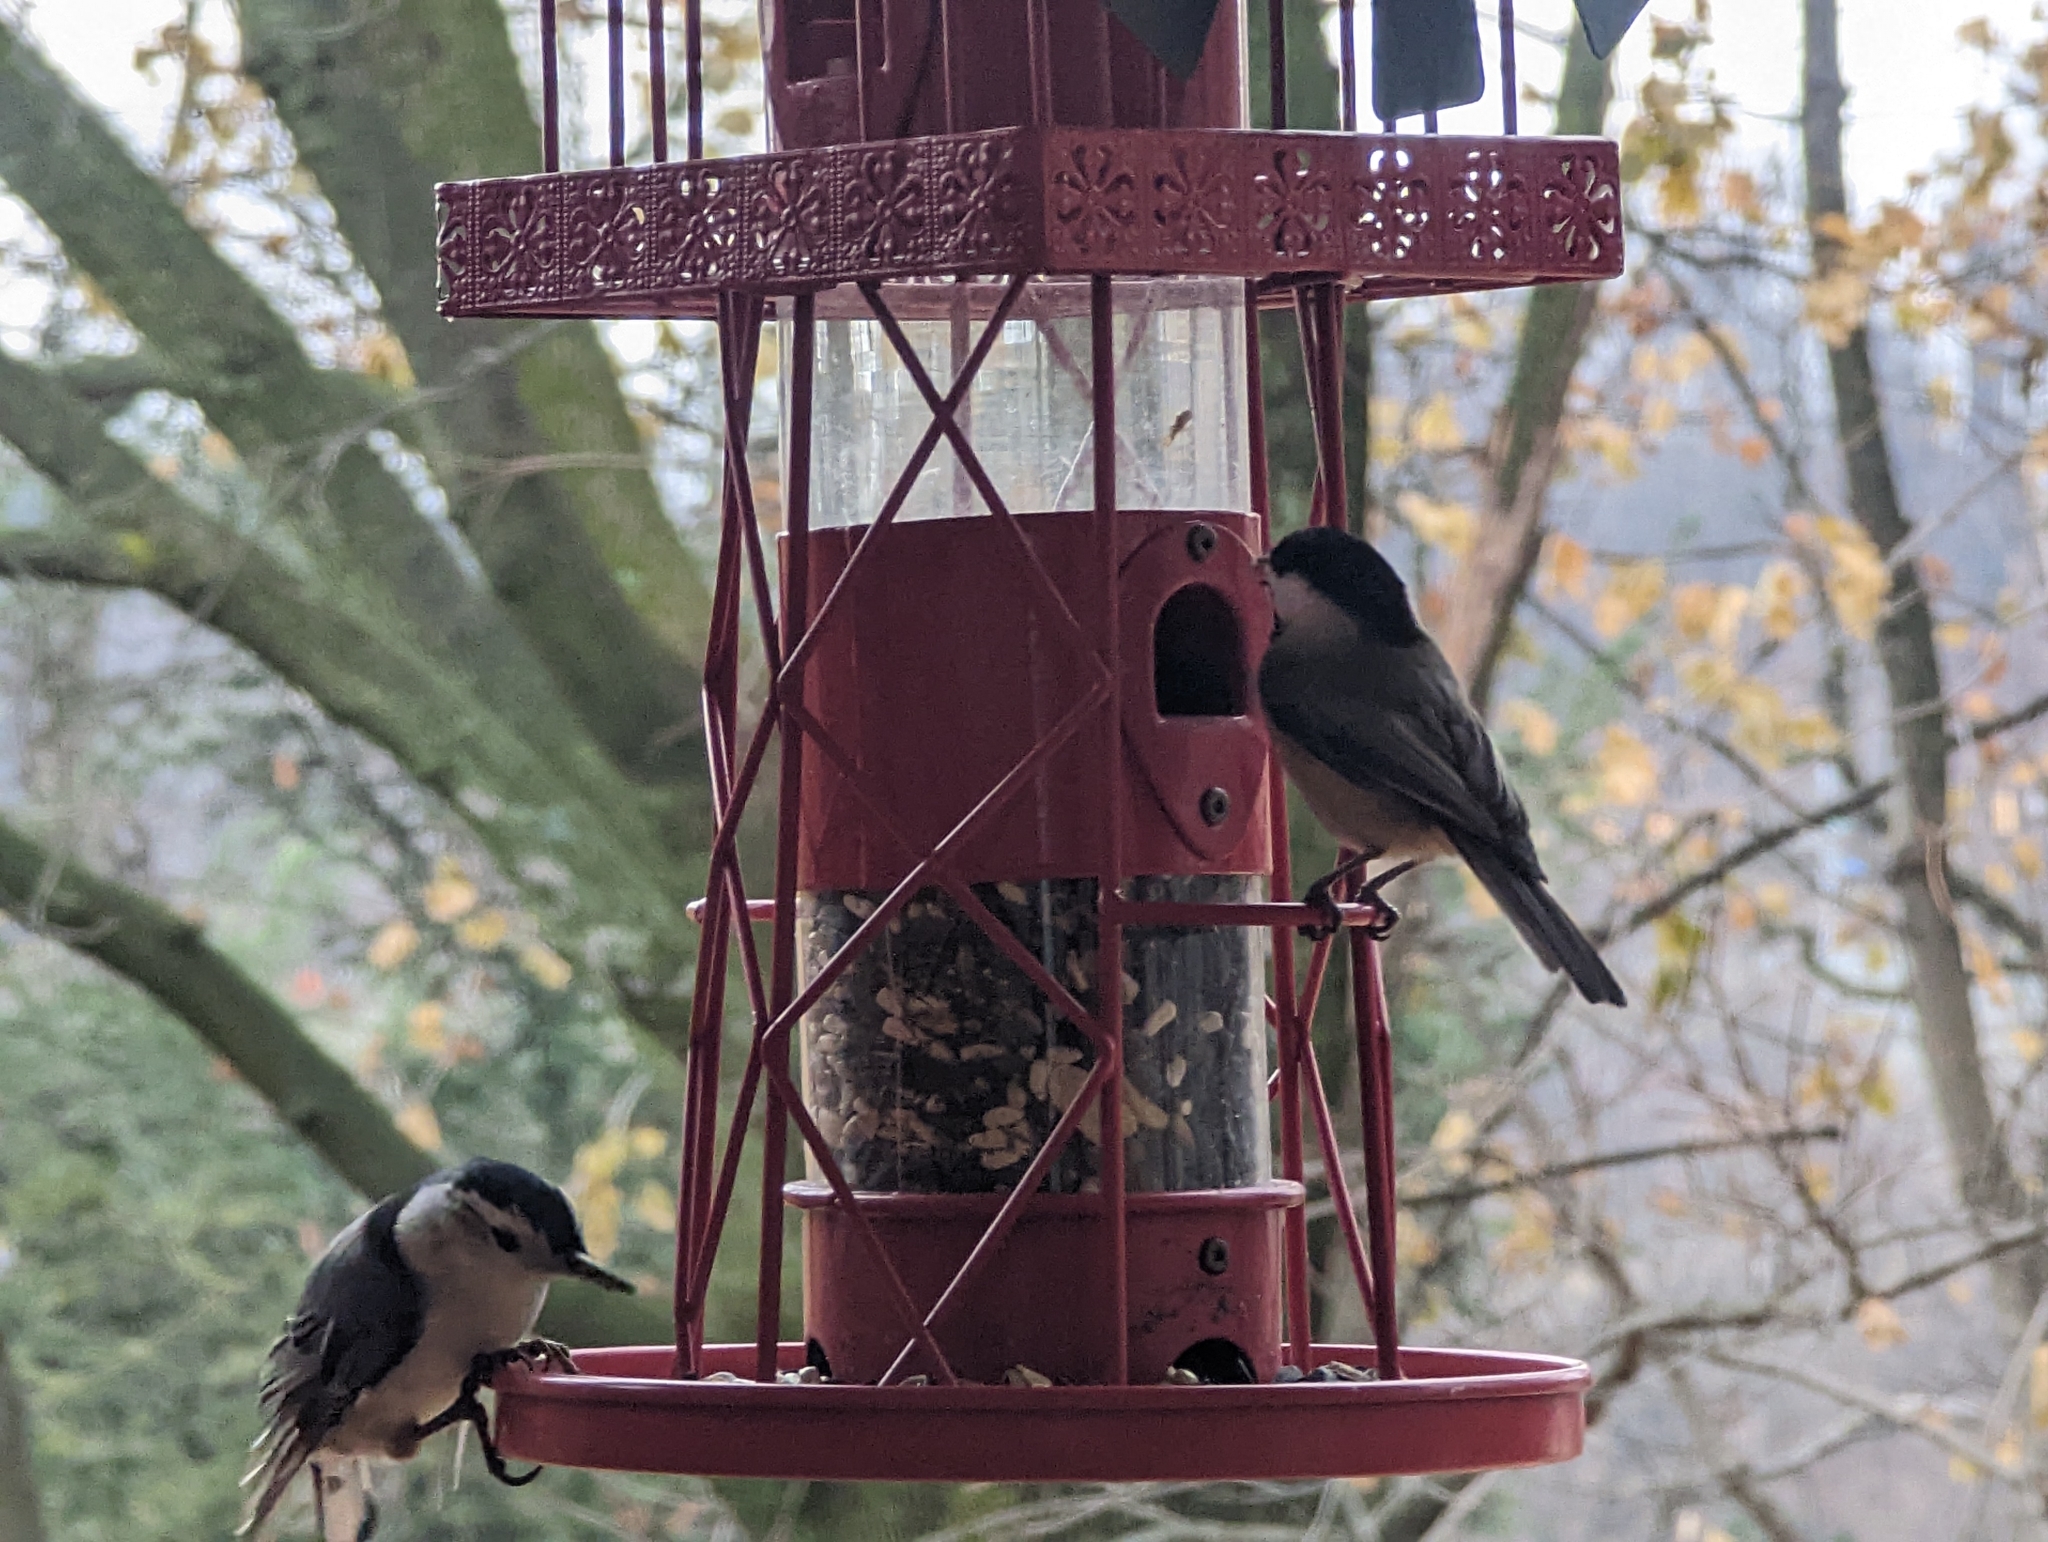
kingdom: Animalia
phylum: Chordata
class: Aves
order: Passeriformes
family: Sittidae
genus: Sitta
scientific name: Sitta carolinensis
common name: White-breasted nuthatch
